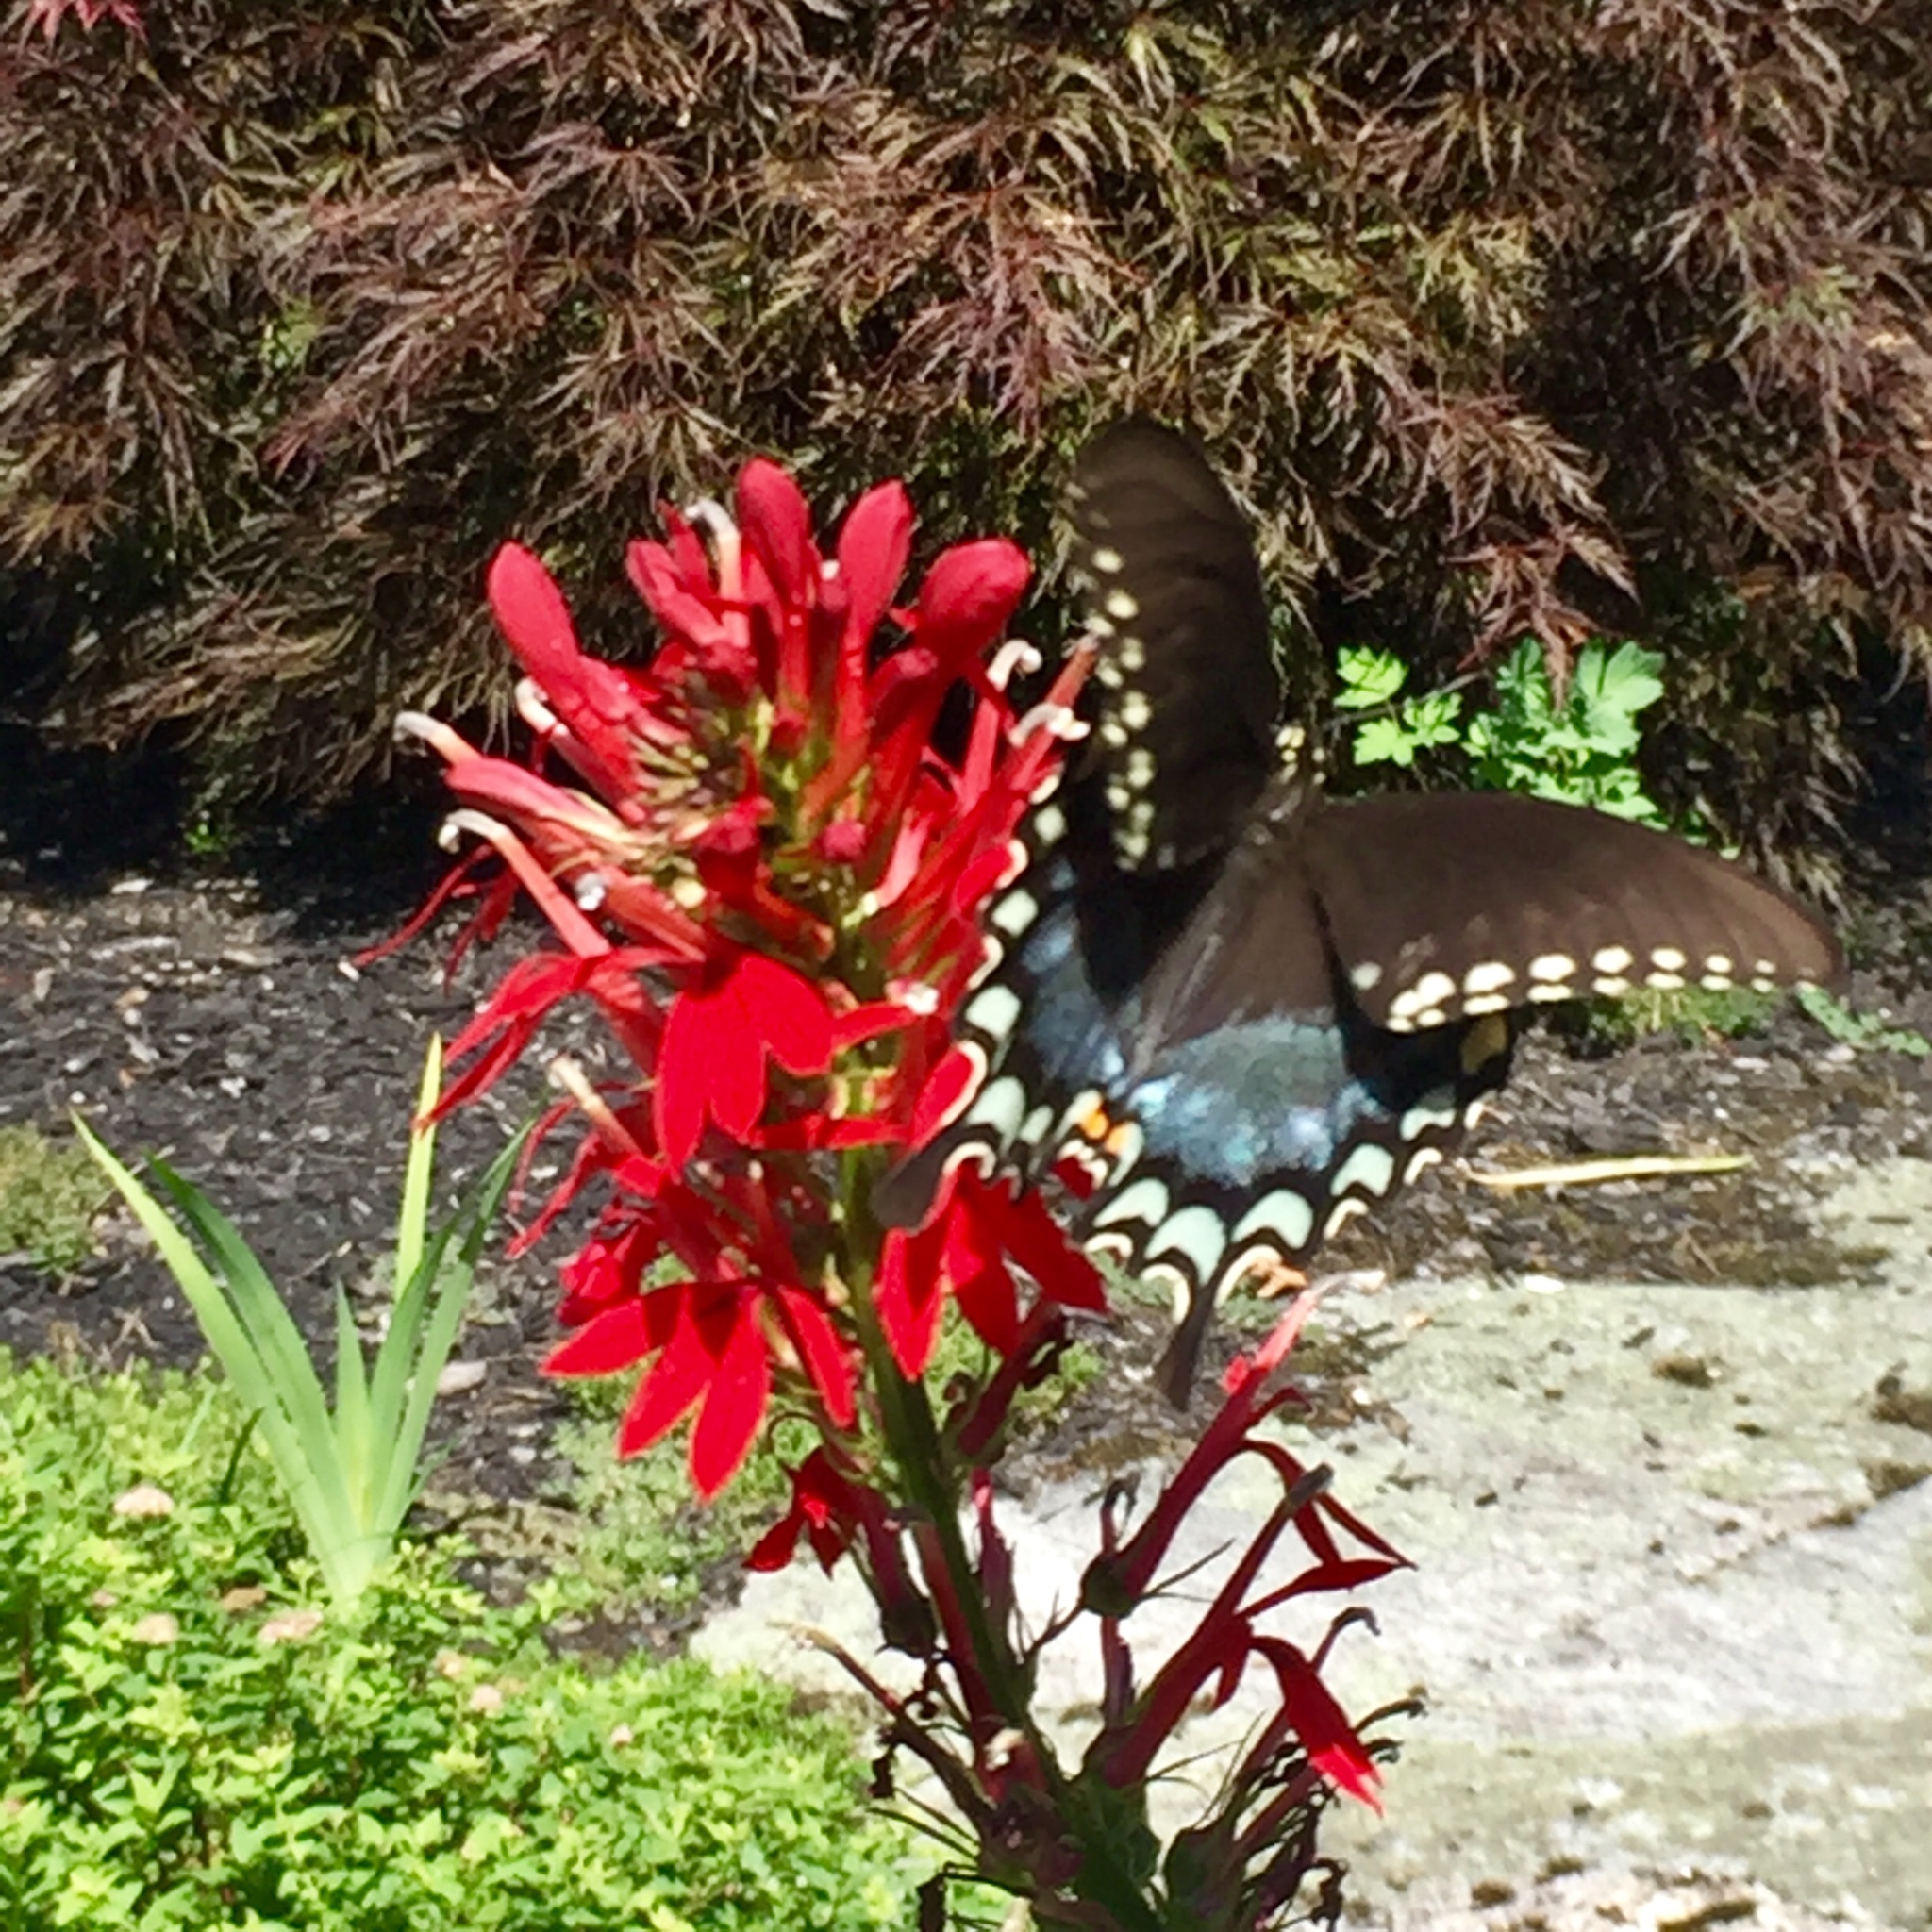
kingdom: Animalia
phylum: Arthropoda
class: Insecta
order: Lepidoptera
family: Papilionidae
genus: Papilio
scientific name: Papilio troilus
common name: Spicebush swallowtail
